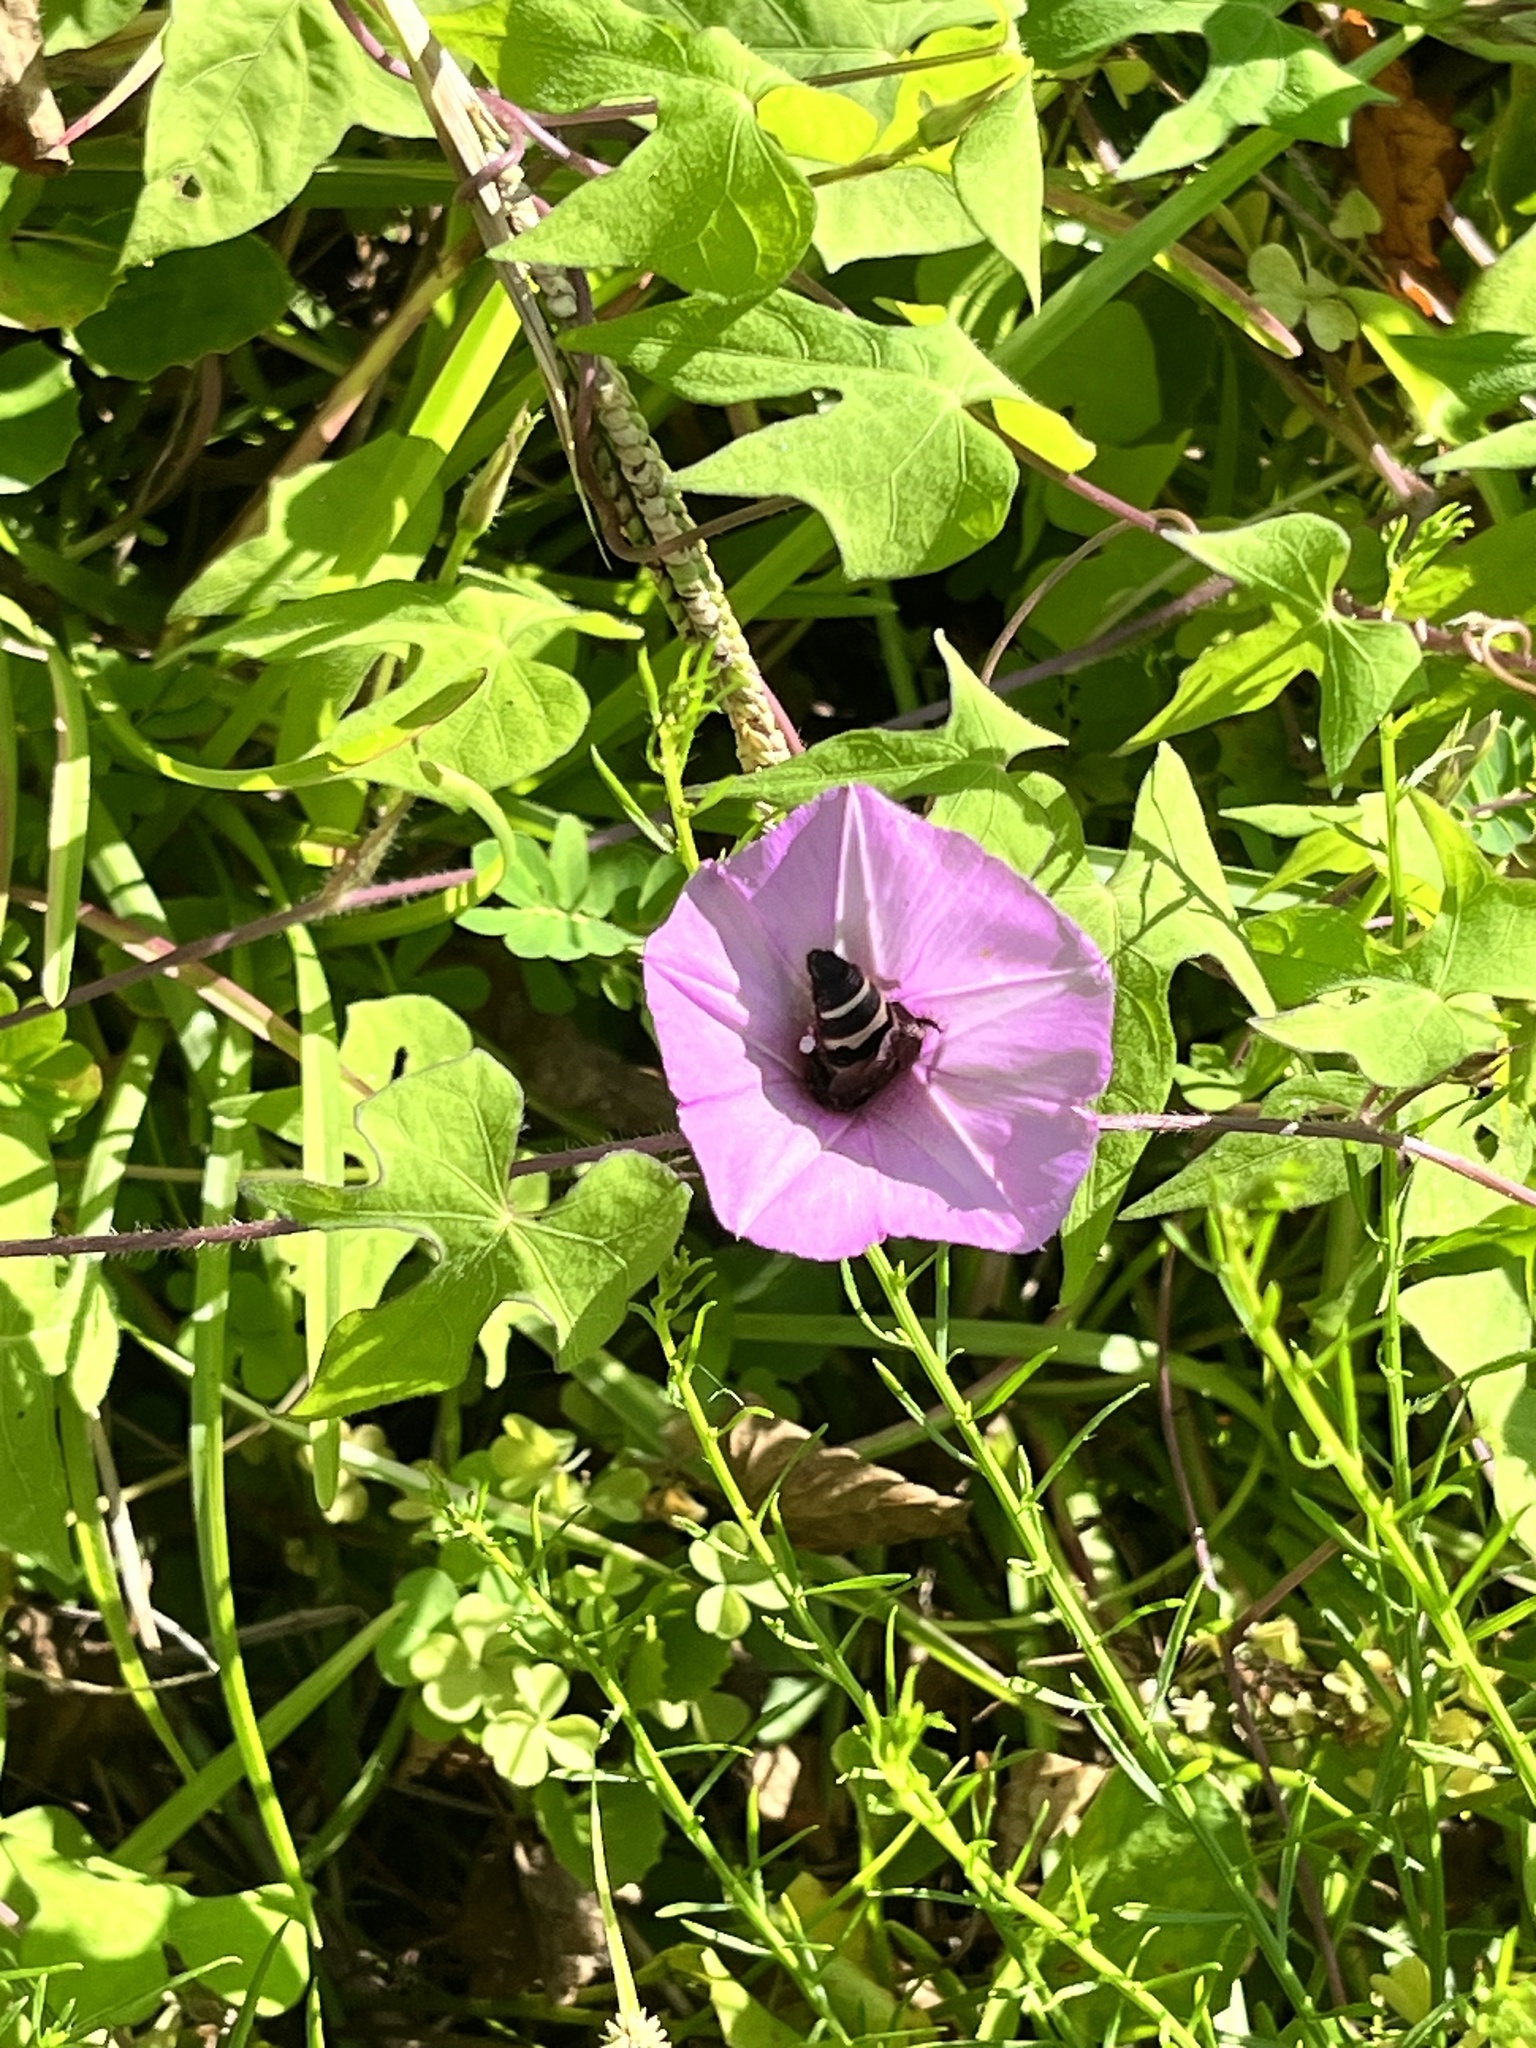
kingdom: Animalia
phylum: Arthropoda
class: Insecta
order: Hymenoptera
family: Scoliidae
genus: Dielis
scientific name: Dielis
